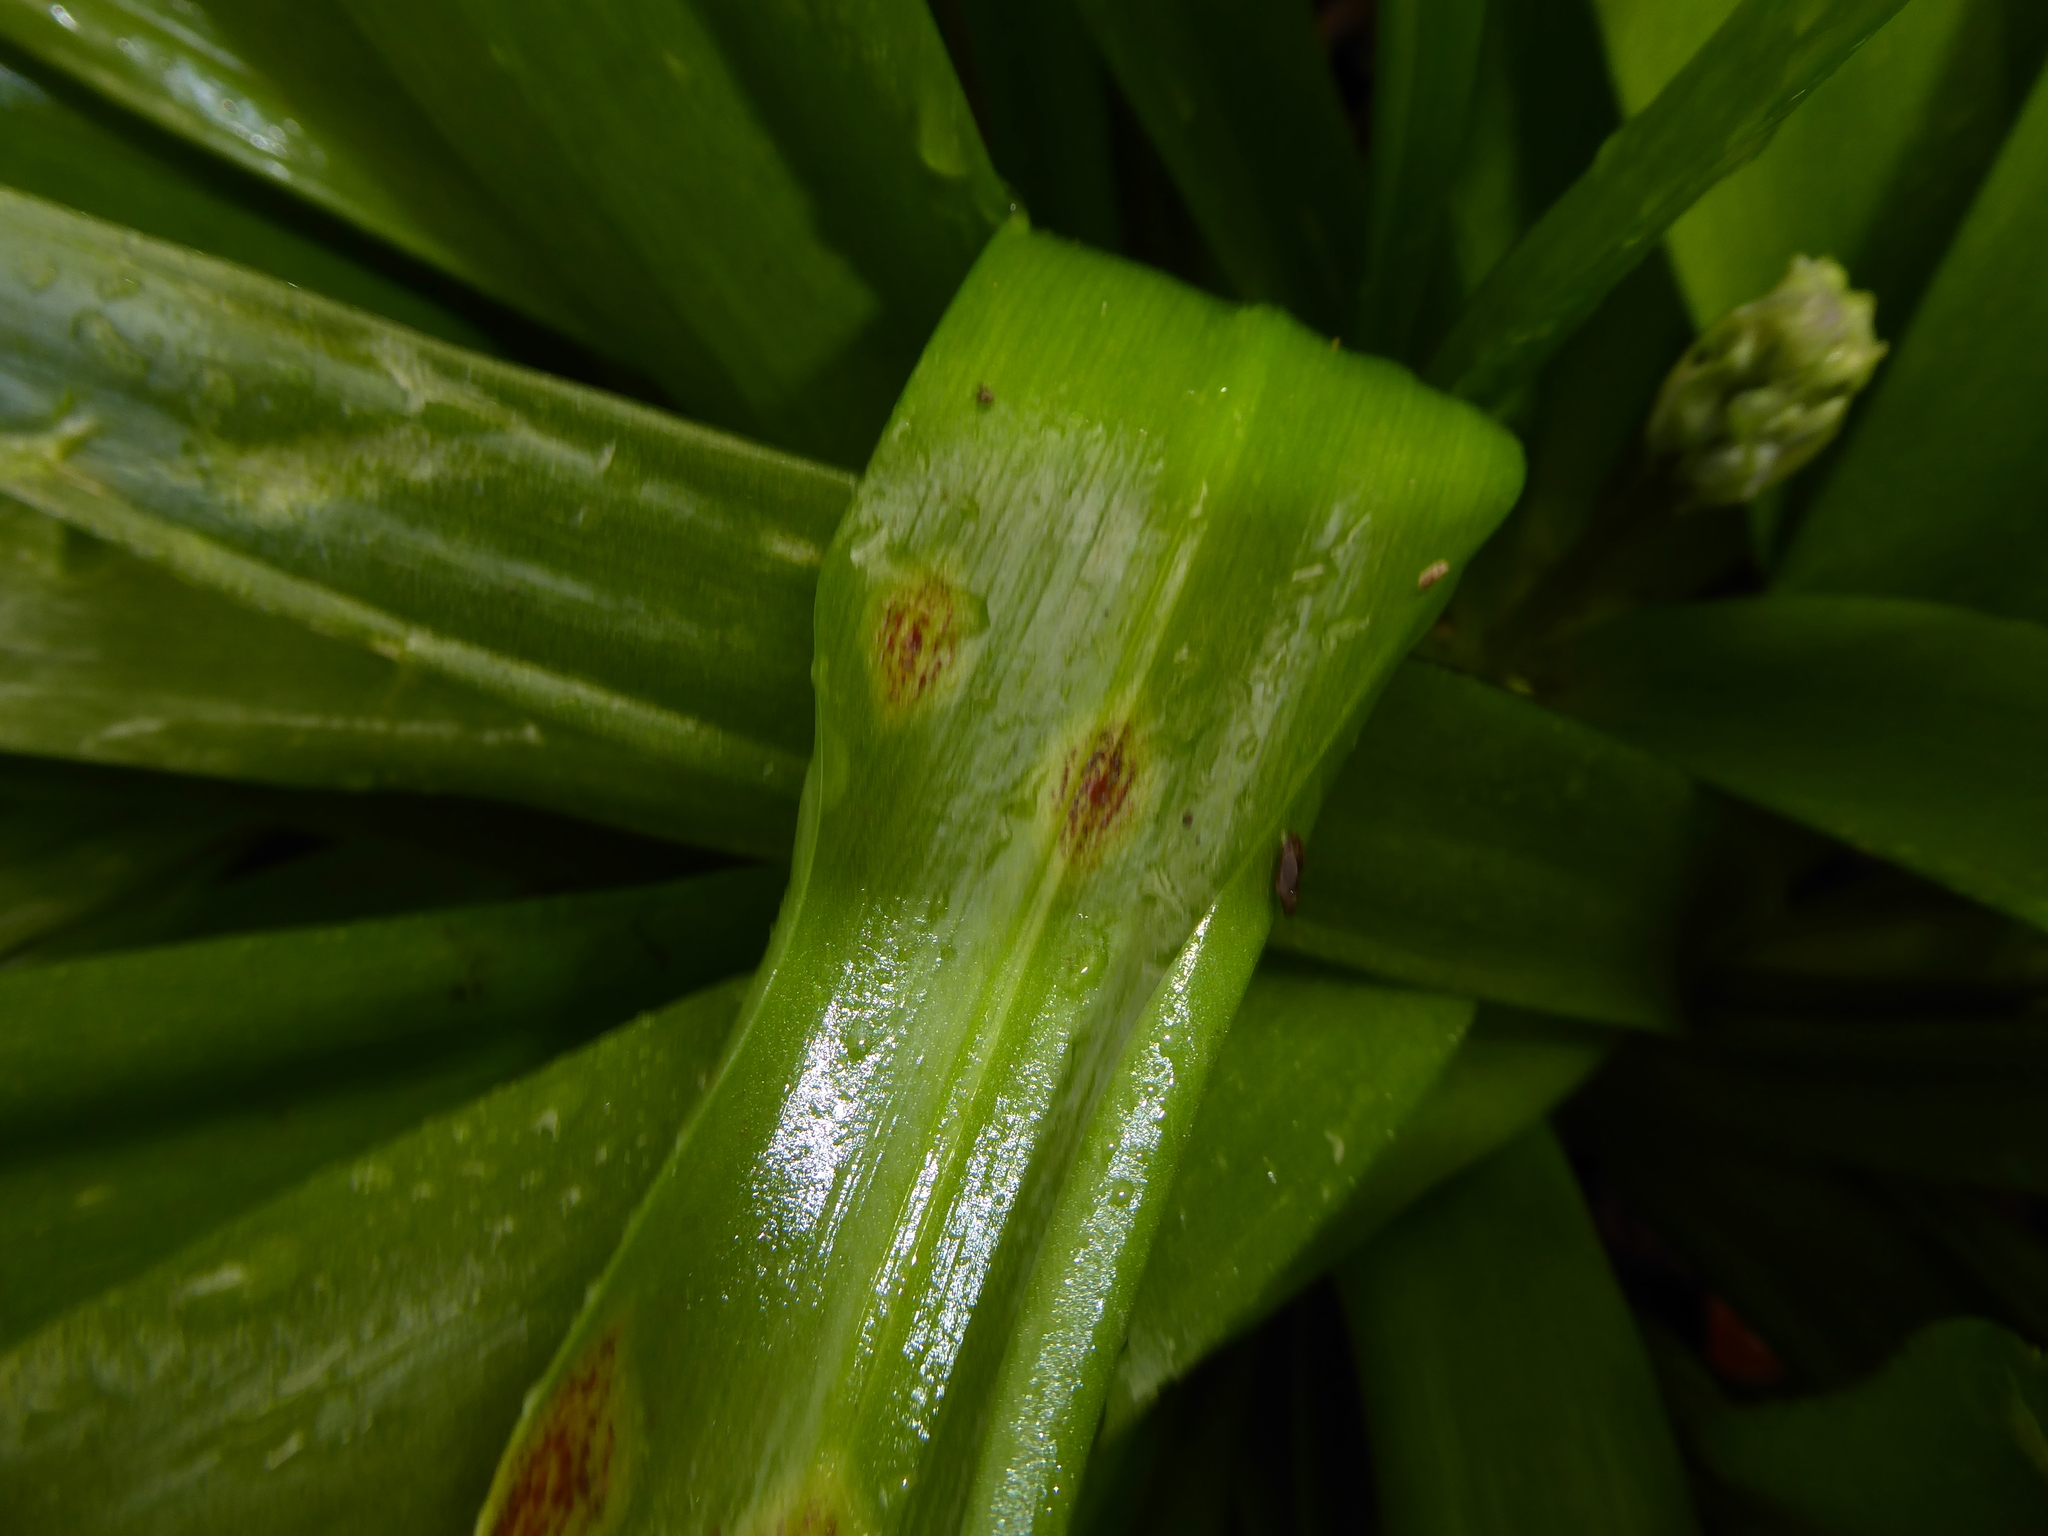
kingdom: Fungi
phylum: Basidiomycota
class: Pucciniomycetes
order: Pucciniales
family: Pucciniaceae
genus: Uromyces
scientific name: Uromyces hyacinthi
